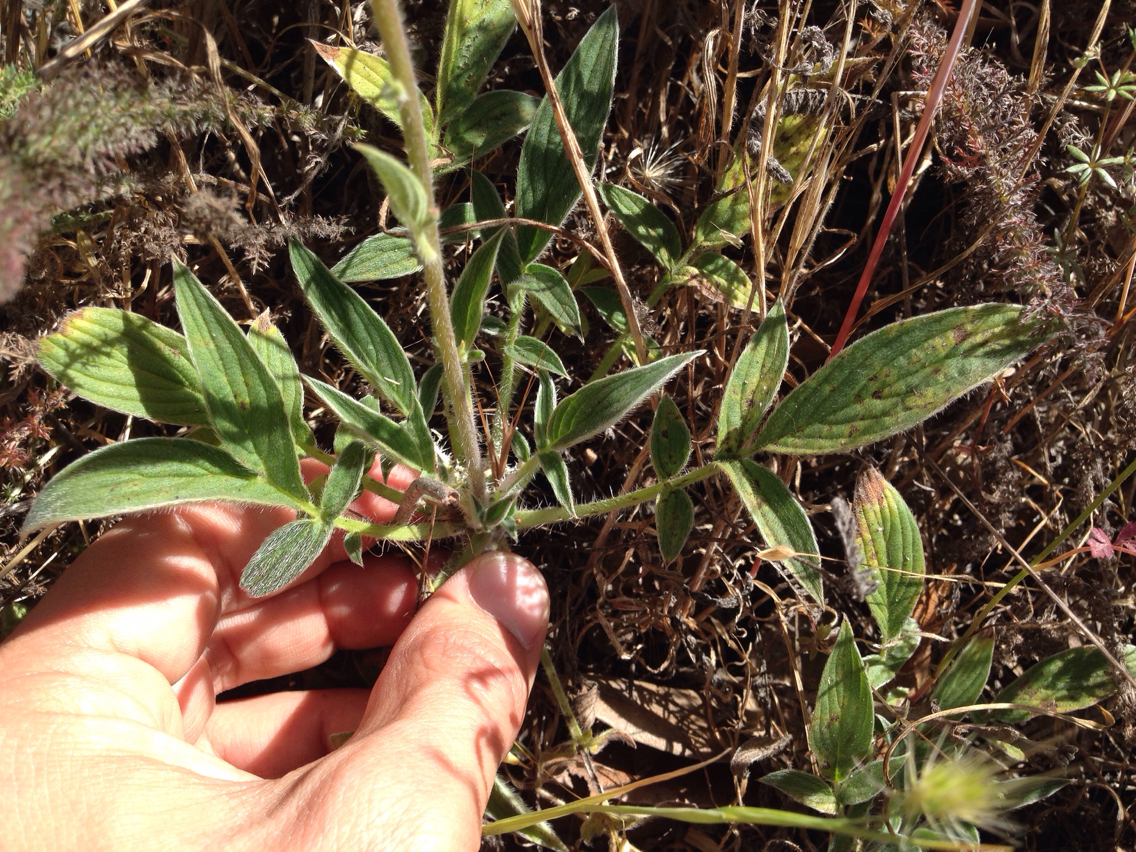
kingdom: Plantae
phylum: Tracheophyta
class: Magnoliopsida
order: Boraginales
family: Hydrophyllaceae
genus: Phacelia
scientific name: Phacelia imbricata
